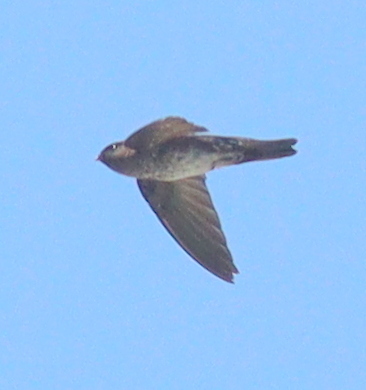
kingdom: Animalia
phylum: Chordata
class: Aves
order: Apodiformes
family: Apodidae
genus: Collocalia
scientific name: Collocalia linchi
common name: Cave swiftlet
